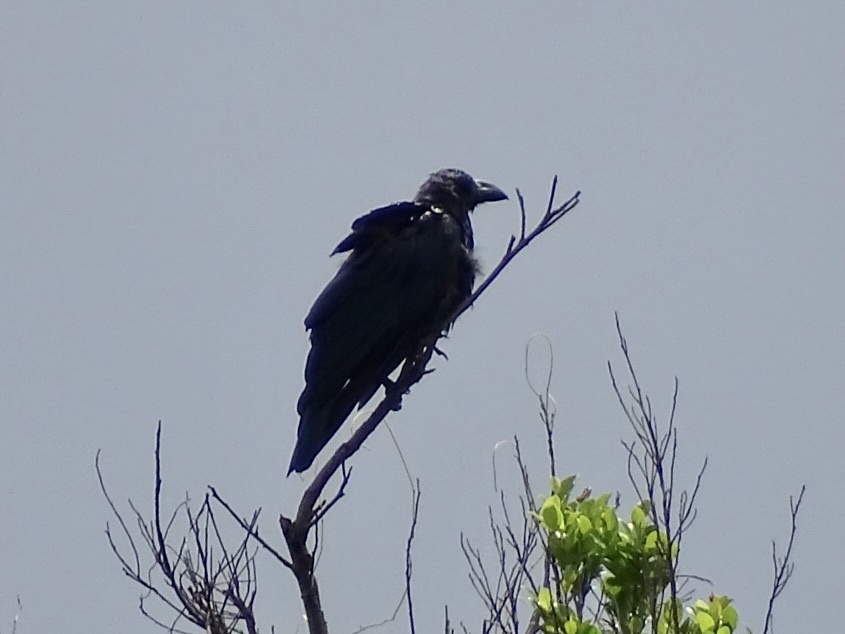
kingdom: Animalia
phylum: Chordata
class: Aves
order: Passeriformes
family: Corvidae
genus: Corvus
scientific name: Corvus macrorhynchos
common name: Large-billed crow
